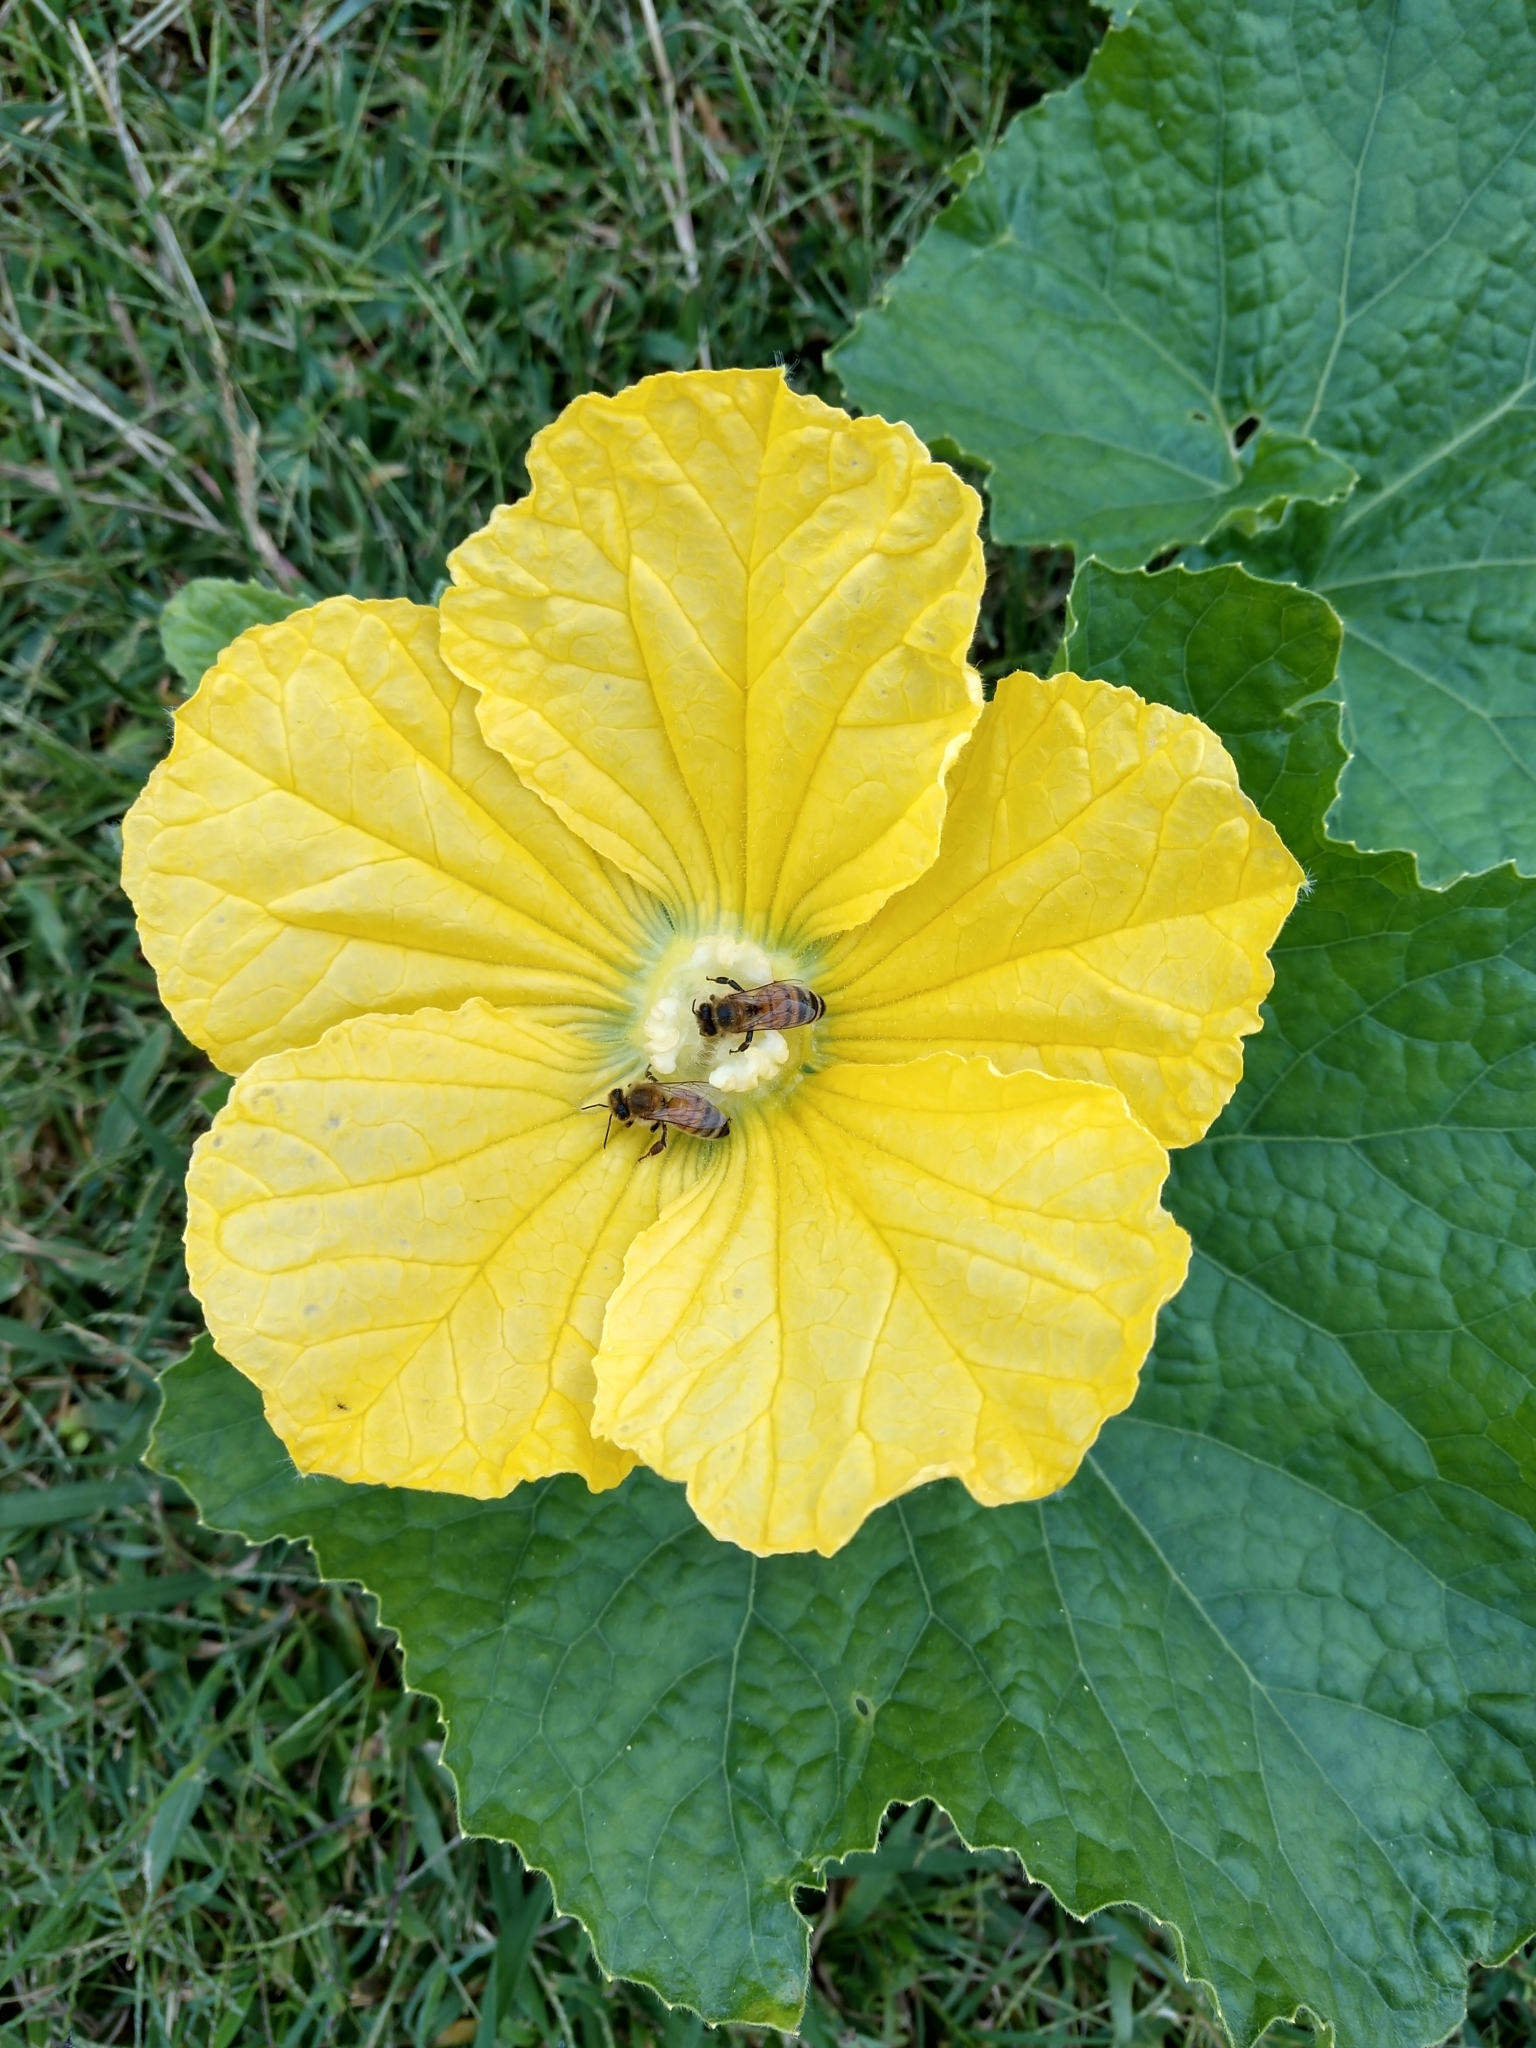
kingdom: Animalia
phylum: Arthropoda
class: Insecta
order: Hymenoptera
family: Apidae
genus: Apis
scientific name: Apis mellifera
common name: Honey bee
